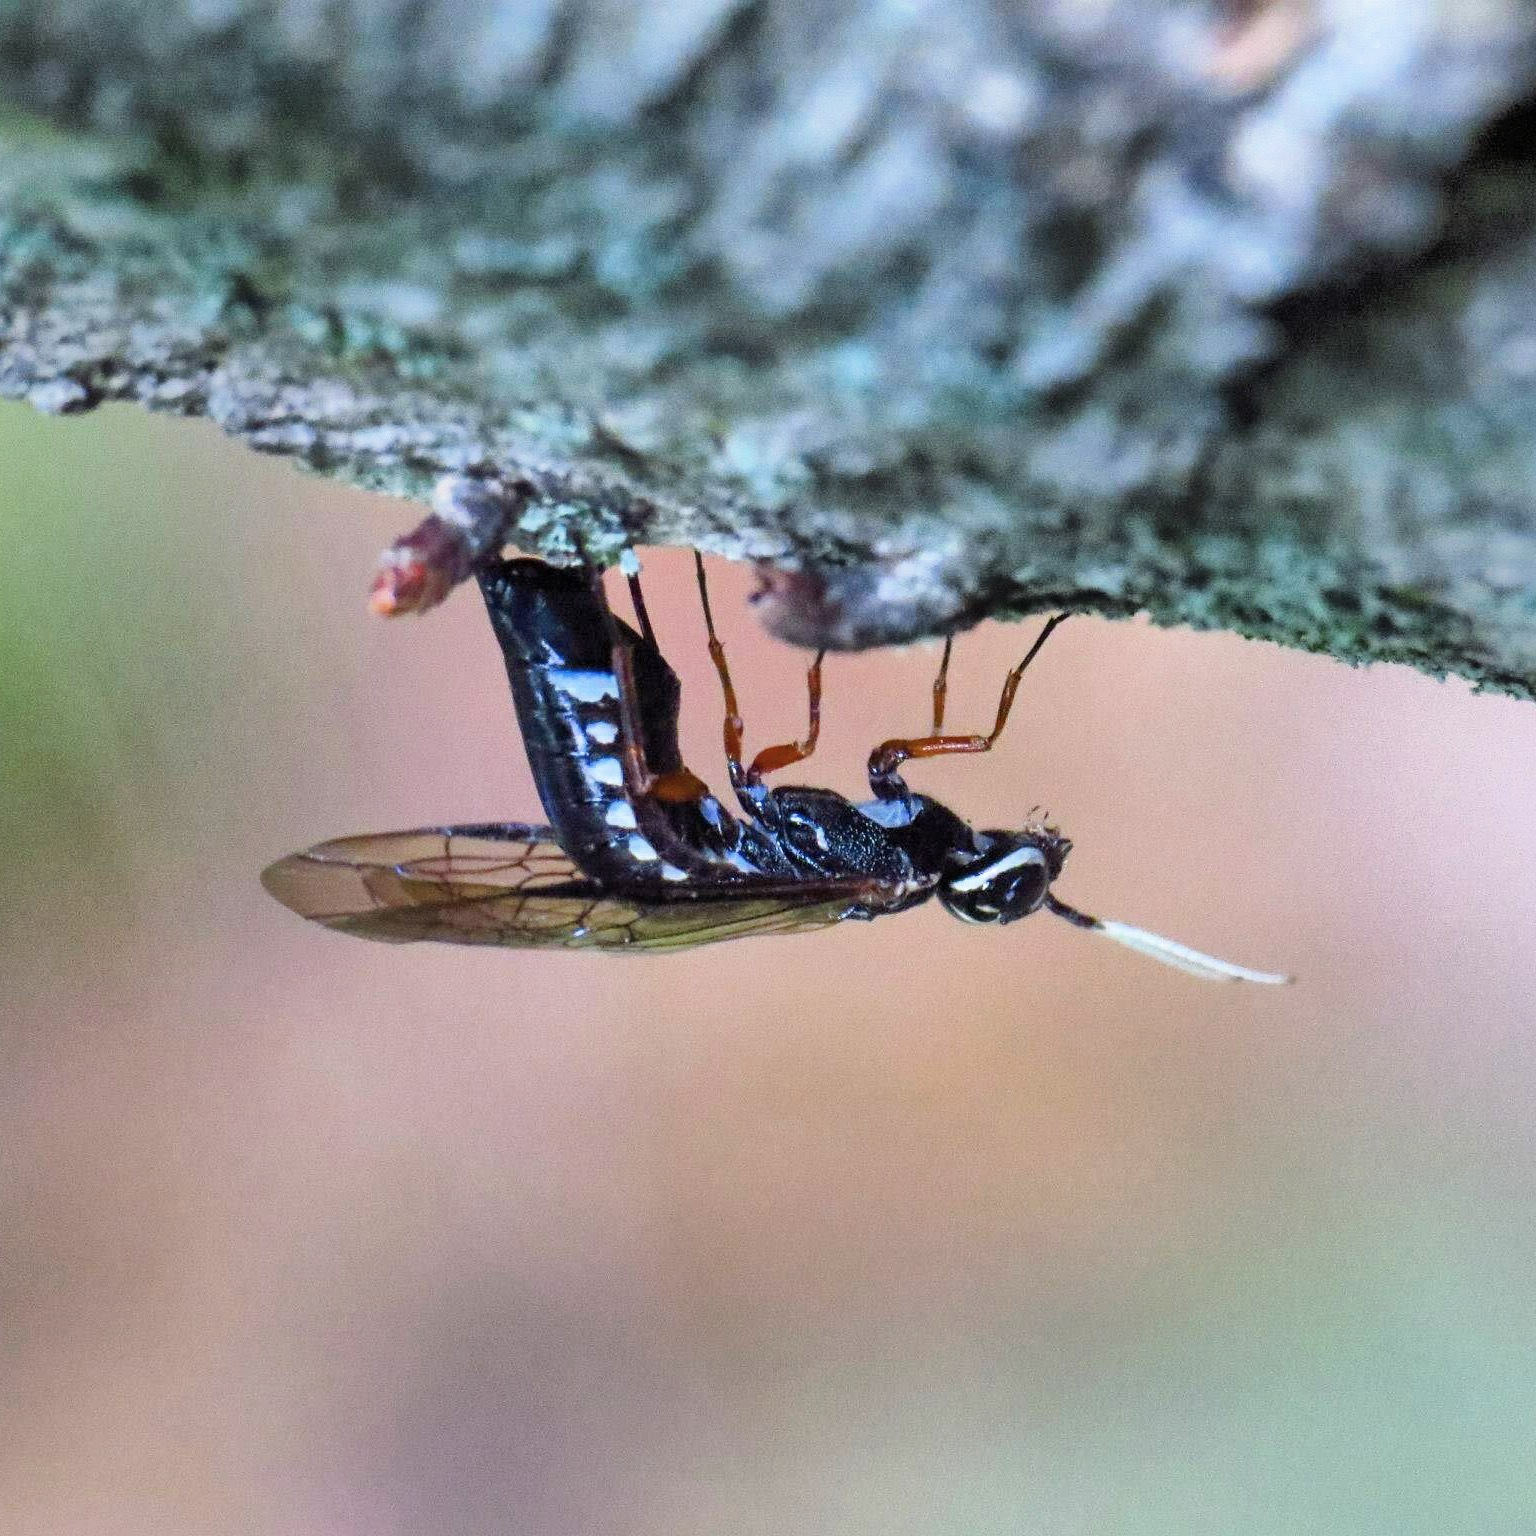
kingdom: Animalia
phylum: Arthropoda
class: Insecta
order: Hymenoptera
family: Xiphydriidae
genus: Xiphydria
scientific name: Xiphydria
